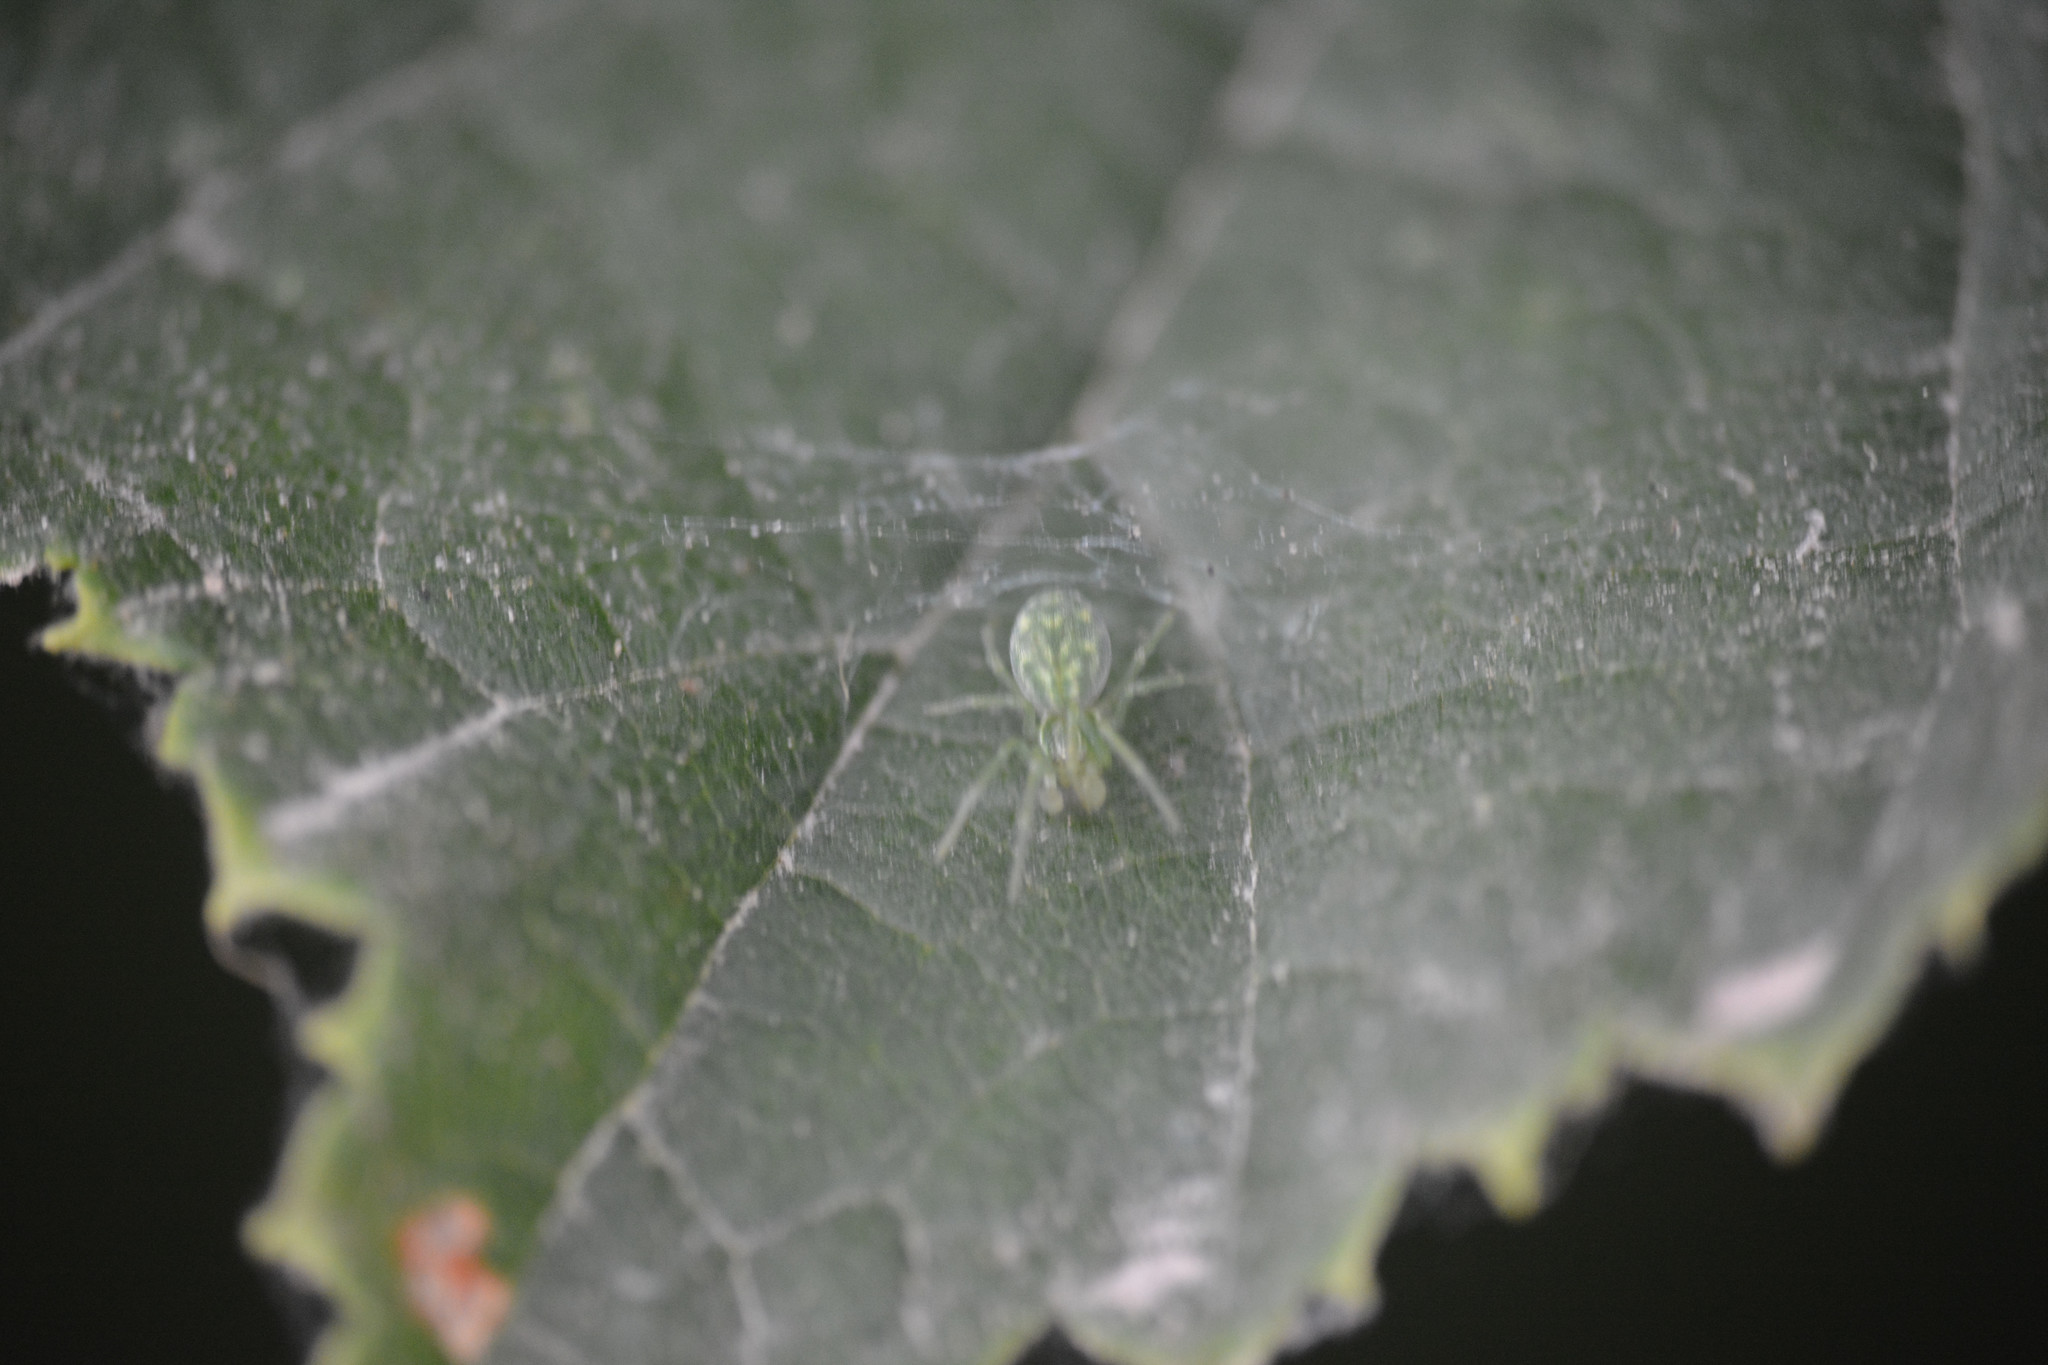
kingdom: Animalia
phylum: Arthropoda
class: Arachnida
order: Araneae
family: Dictynidae
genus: Nigma
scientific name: Nigma walckenaeri
